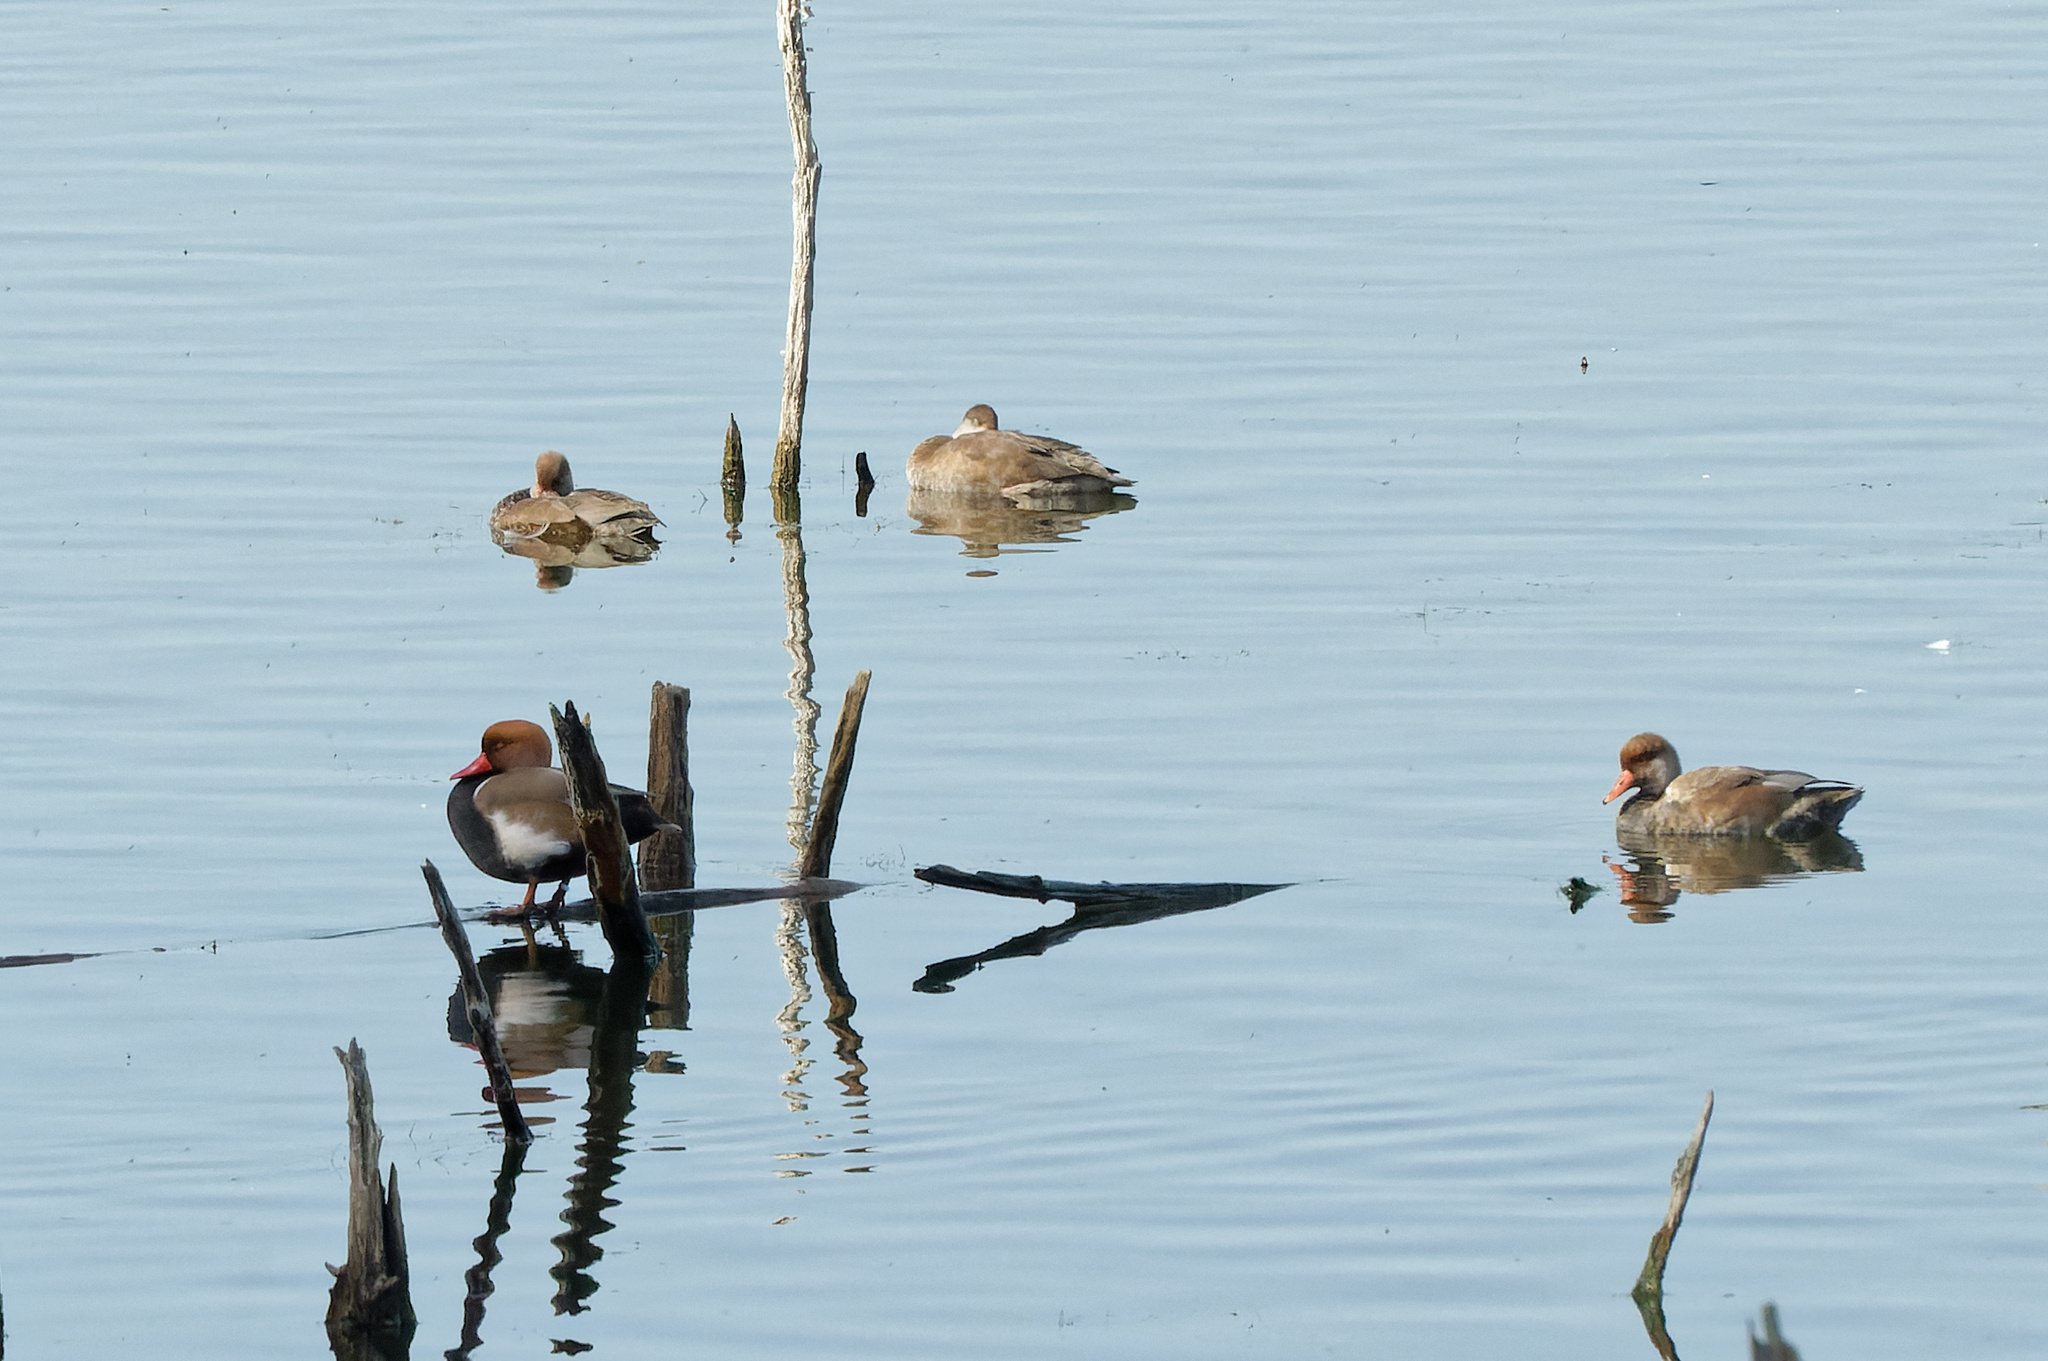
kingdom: Animalia
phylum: Chordata
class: Aves
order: Anseriformes
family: Anatidae
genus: Netta
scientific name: Netta rufina
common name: Red-crested pochard
